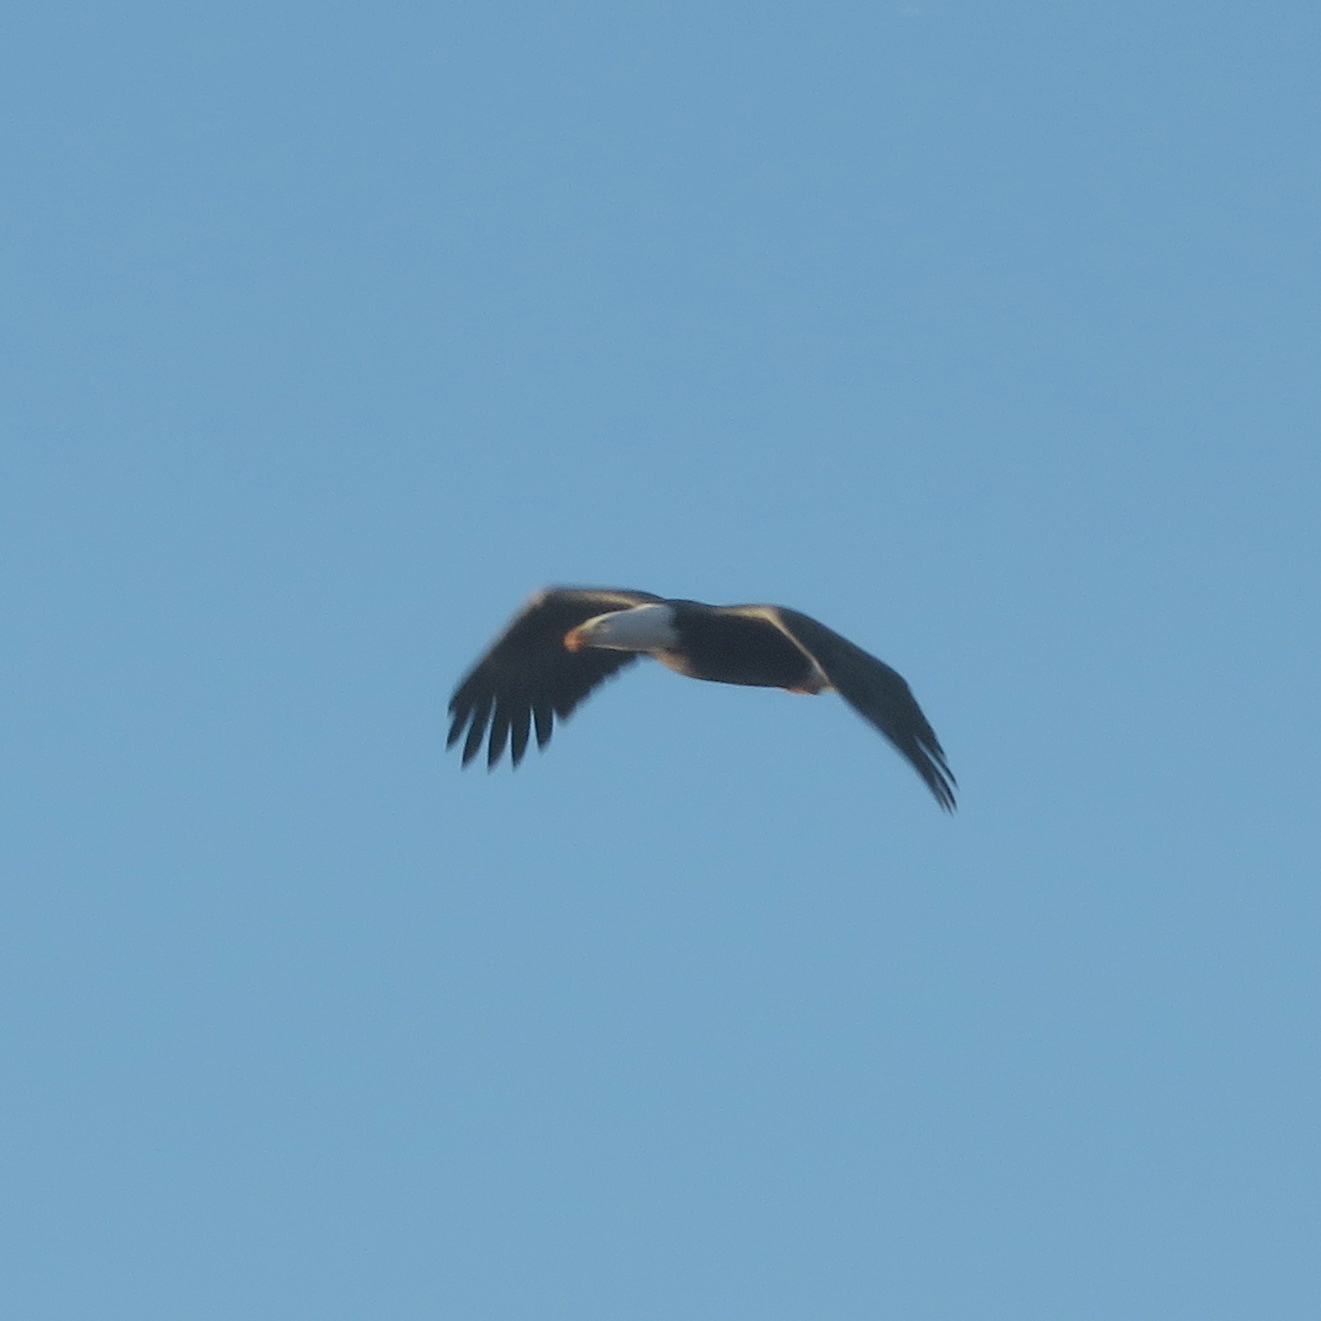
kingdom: Animalia
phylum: Chordata
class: Aves
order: Accipitriformes
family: Accipitridae
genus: Haliaeetus
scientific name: Haliaeetus leucocephalus
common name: Bald eagle
